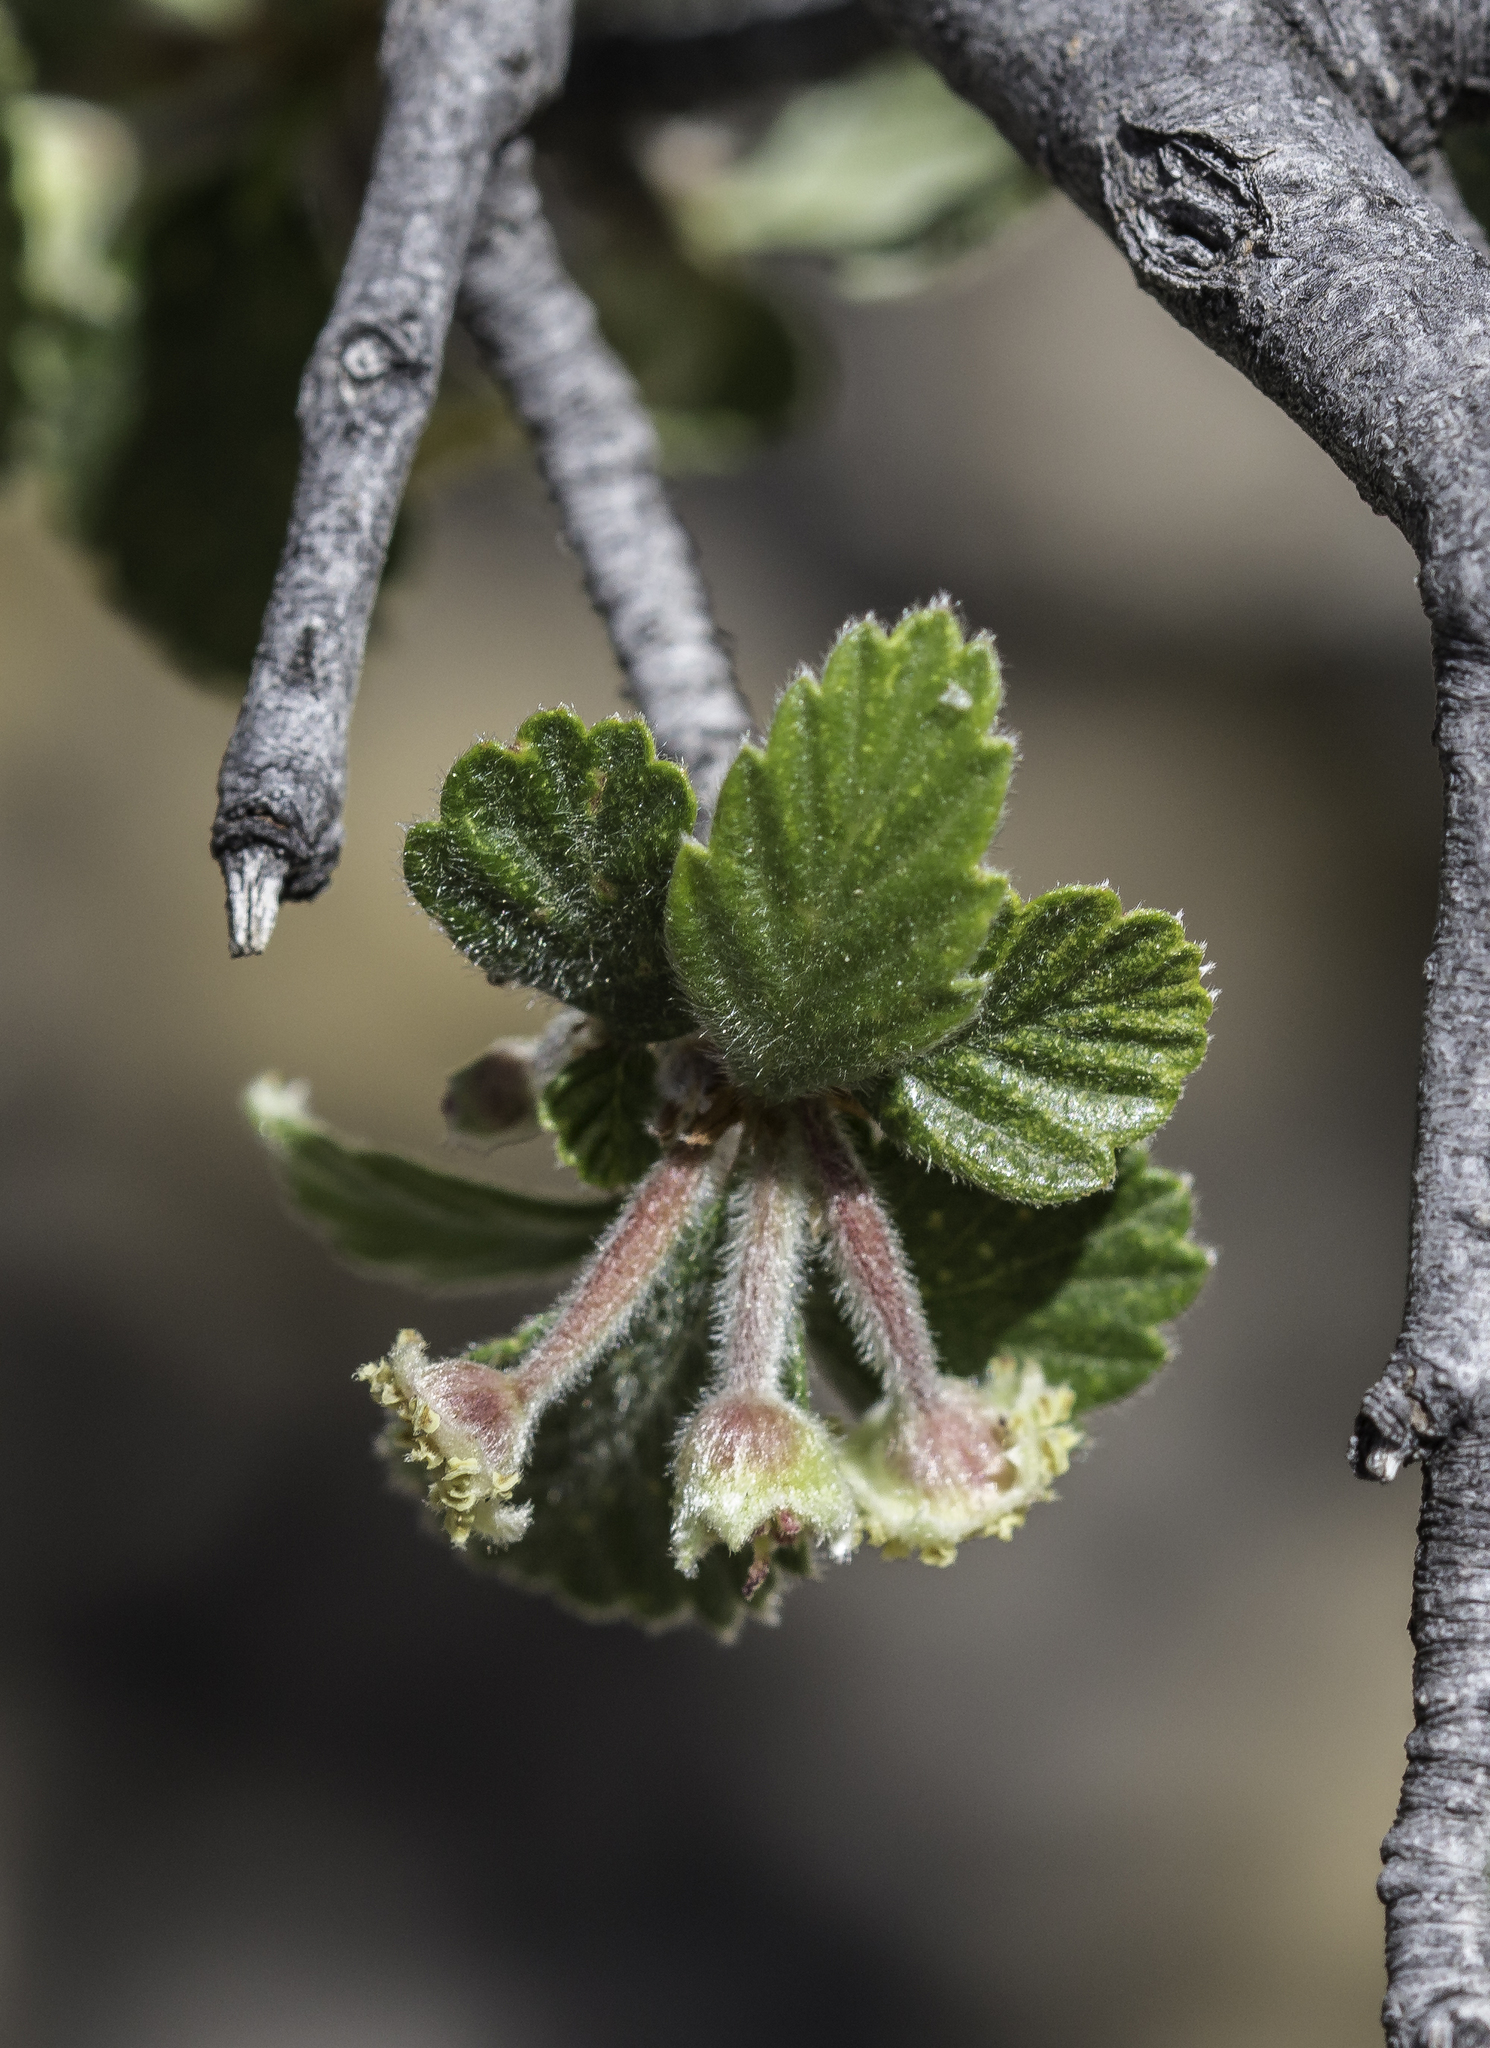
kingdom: Plantae
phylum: Tracheophyta
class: Magnoliopsida
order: Rosales
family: Rosaceae
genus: Cercocarpus
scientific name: Cercocarpus montanus
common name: Alder-leaf cercocarpus
